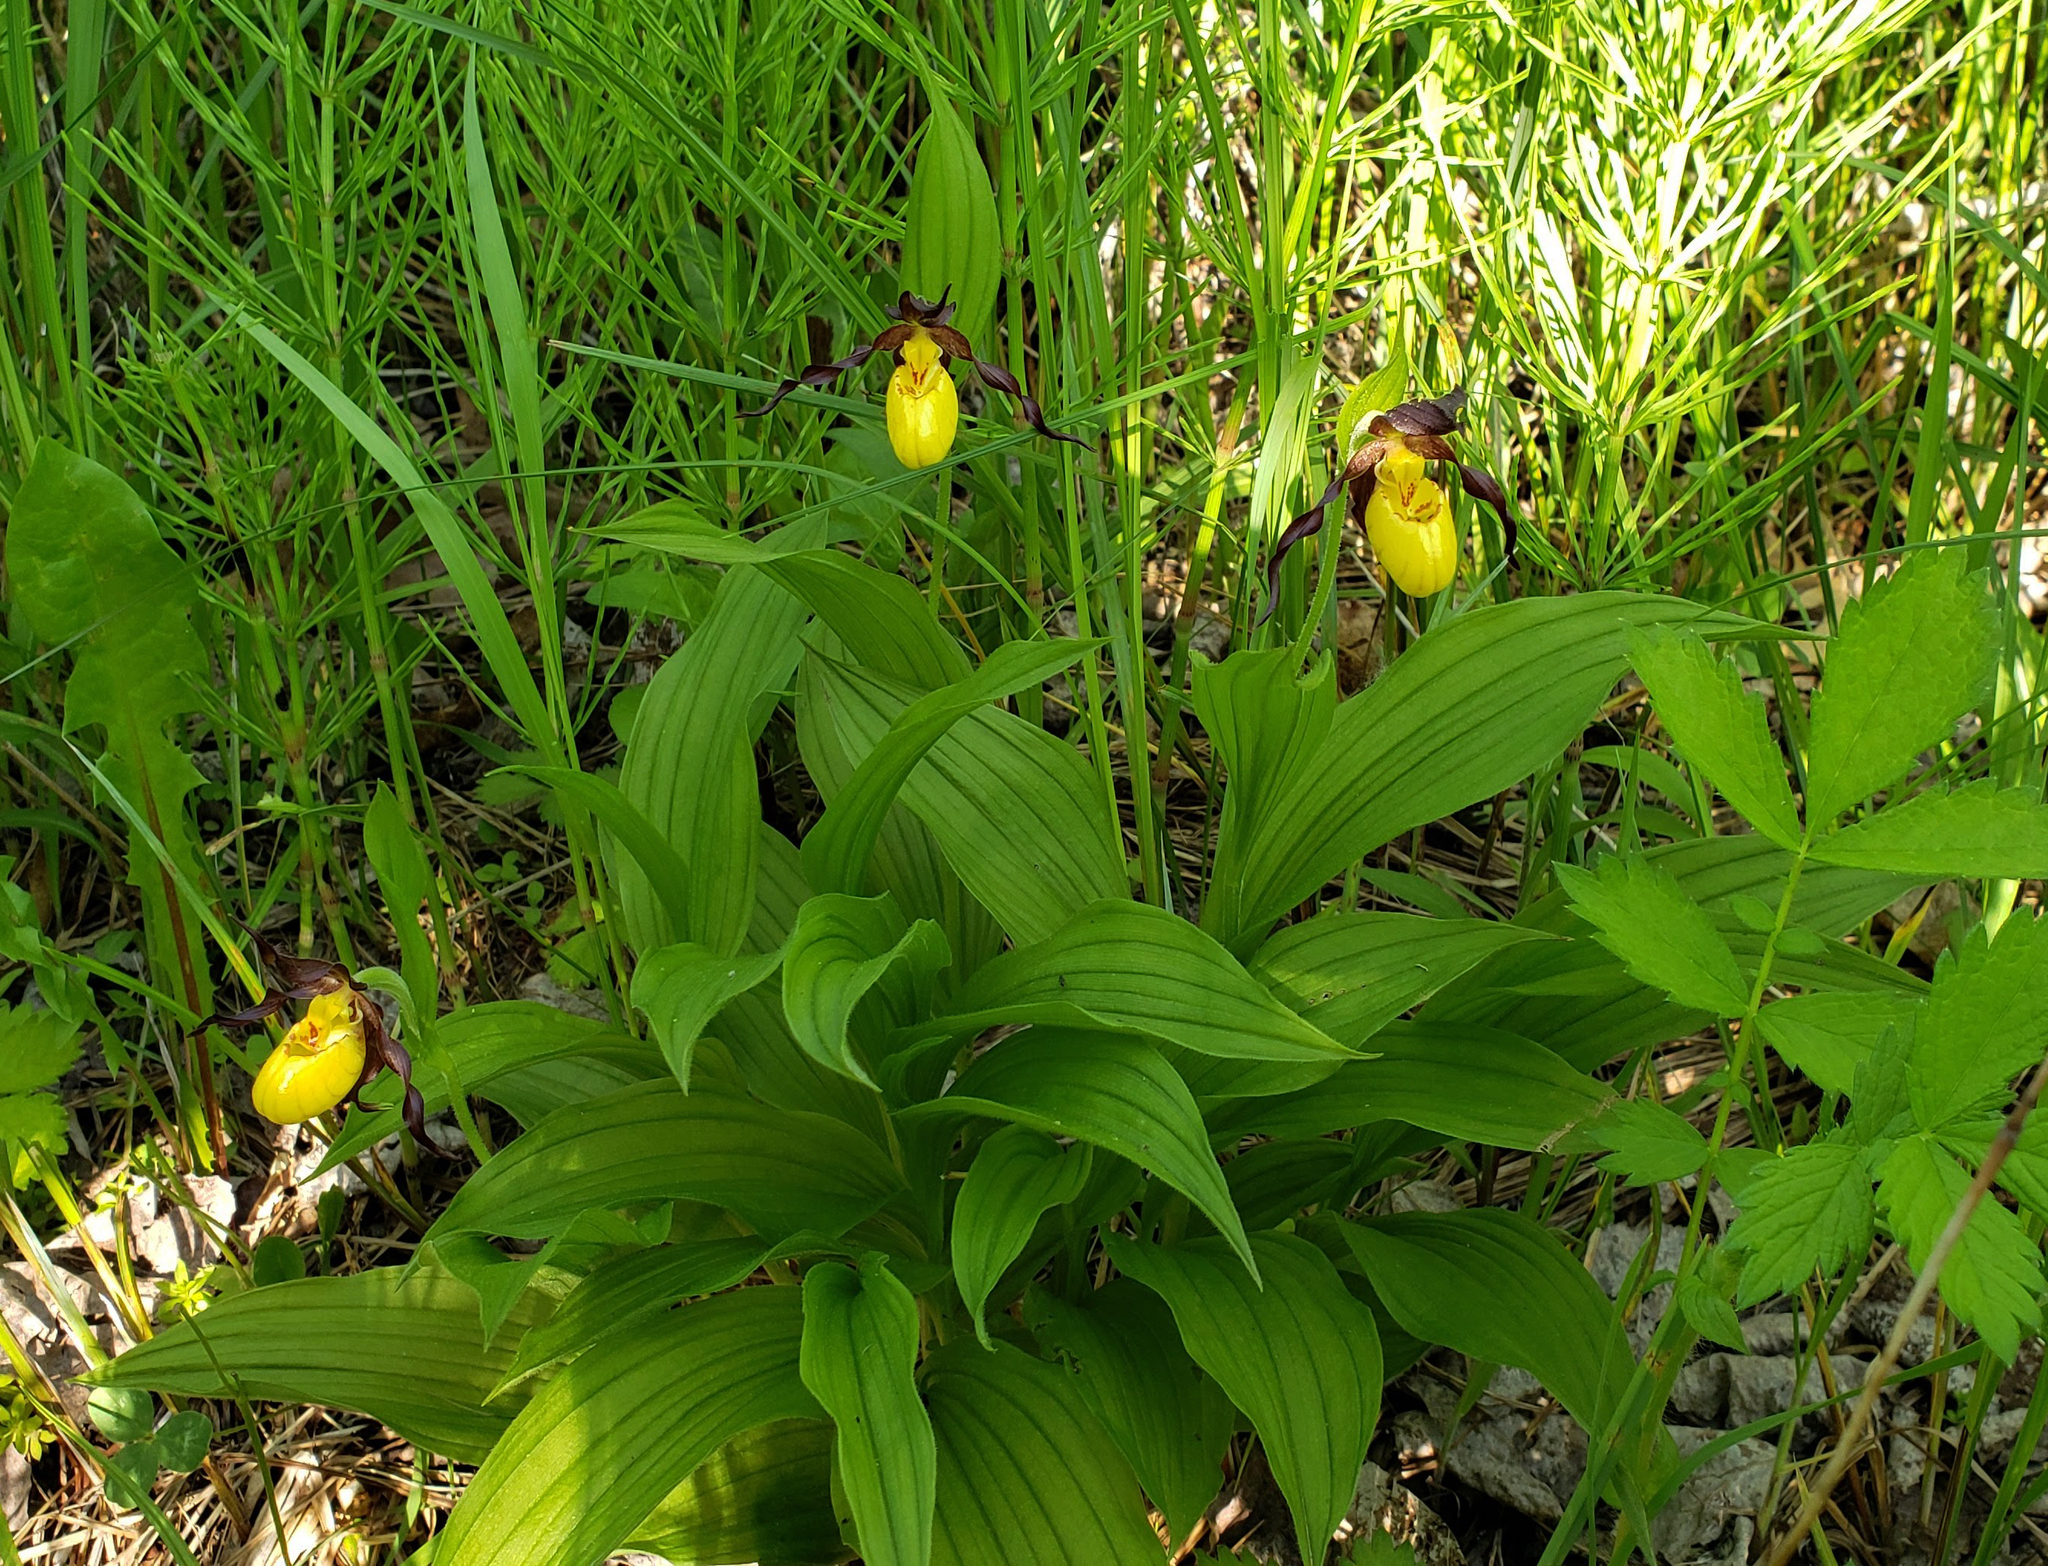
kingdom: Plantae
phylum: Tracheophyta
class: Liliopsida
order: Asparagales
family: Orchidaceae
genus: Cypripedium
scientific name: Cypripedium parviflorum
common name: American yellow lady's-slipper
